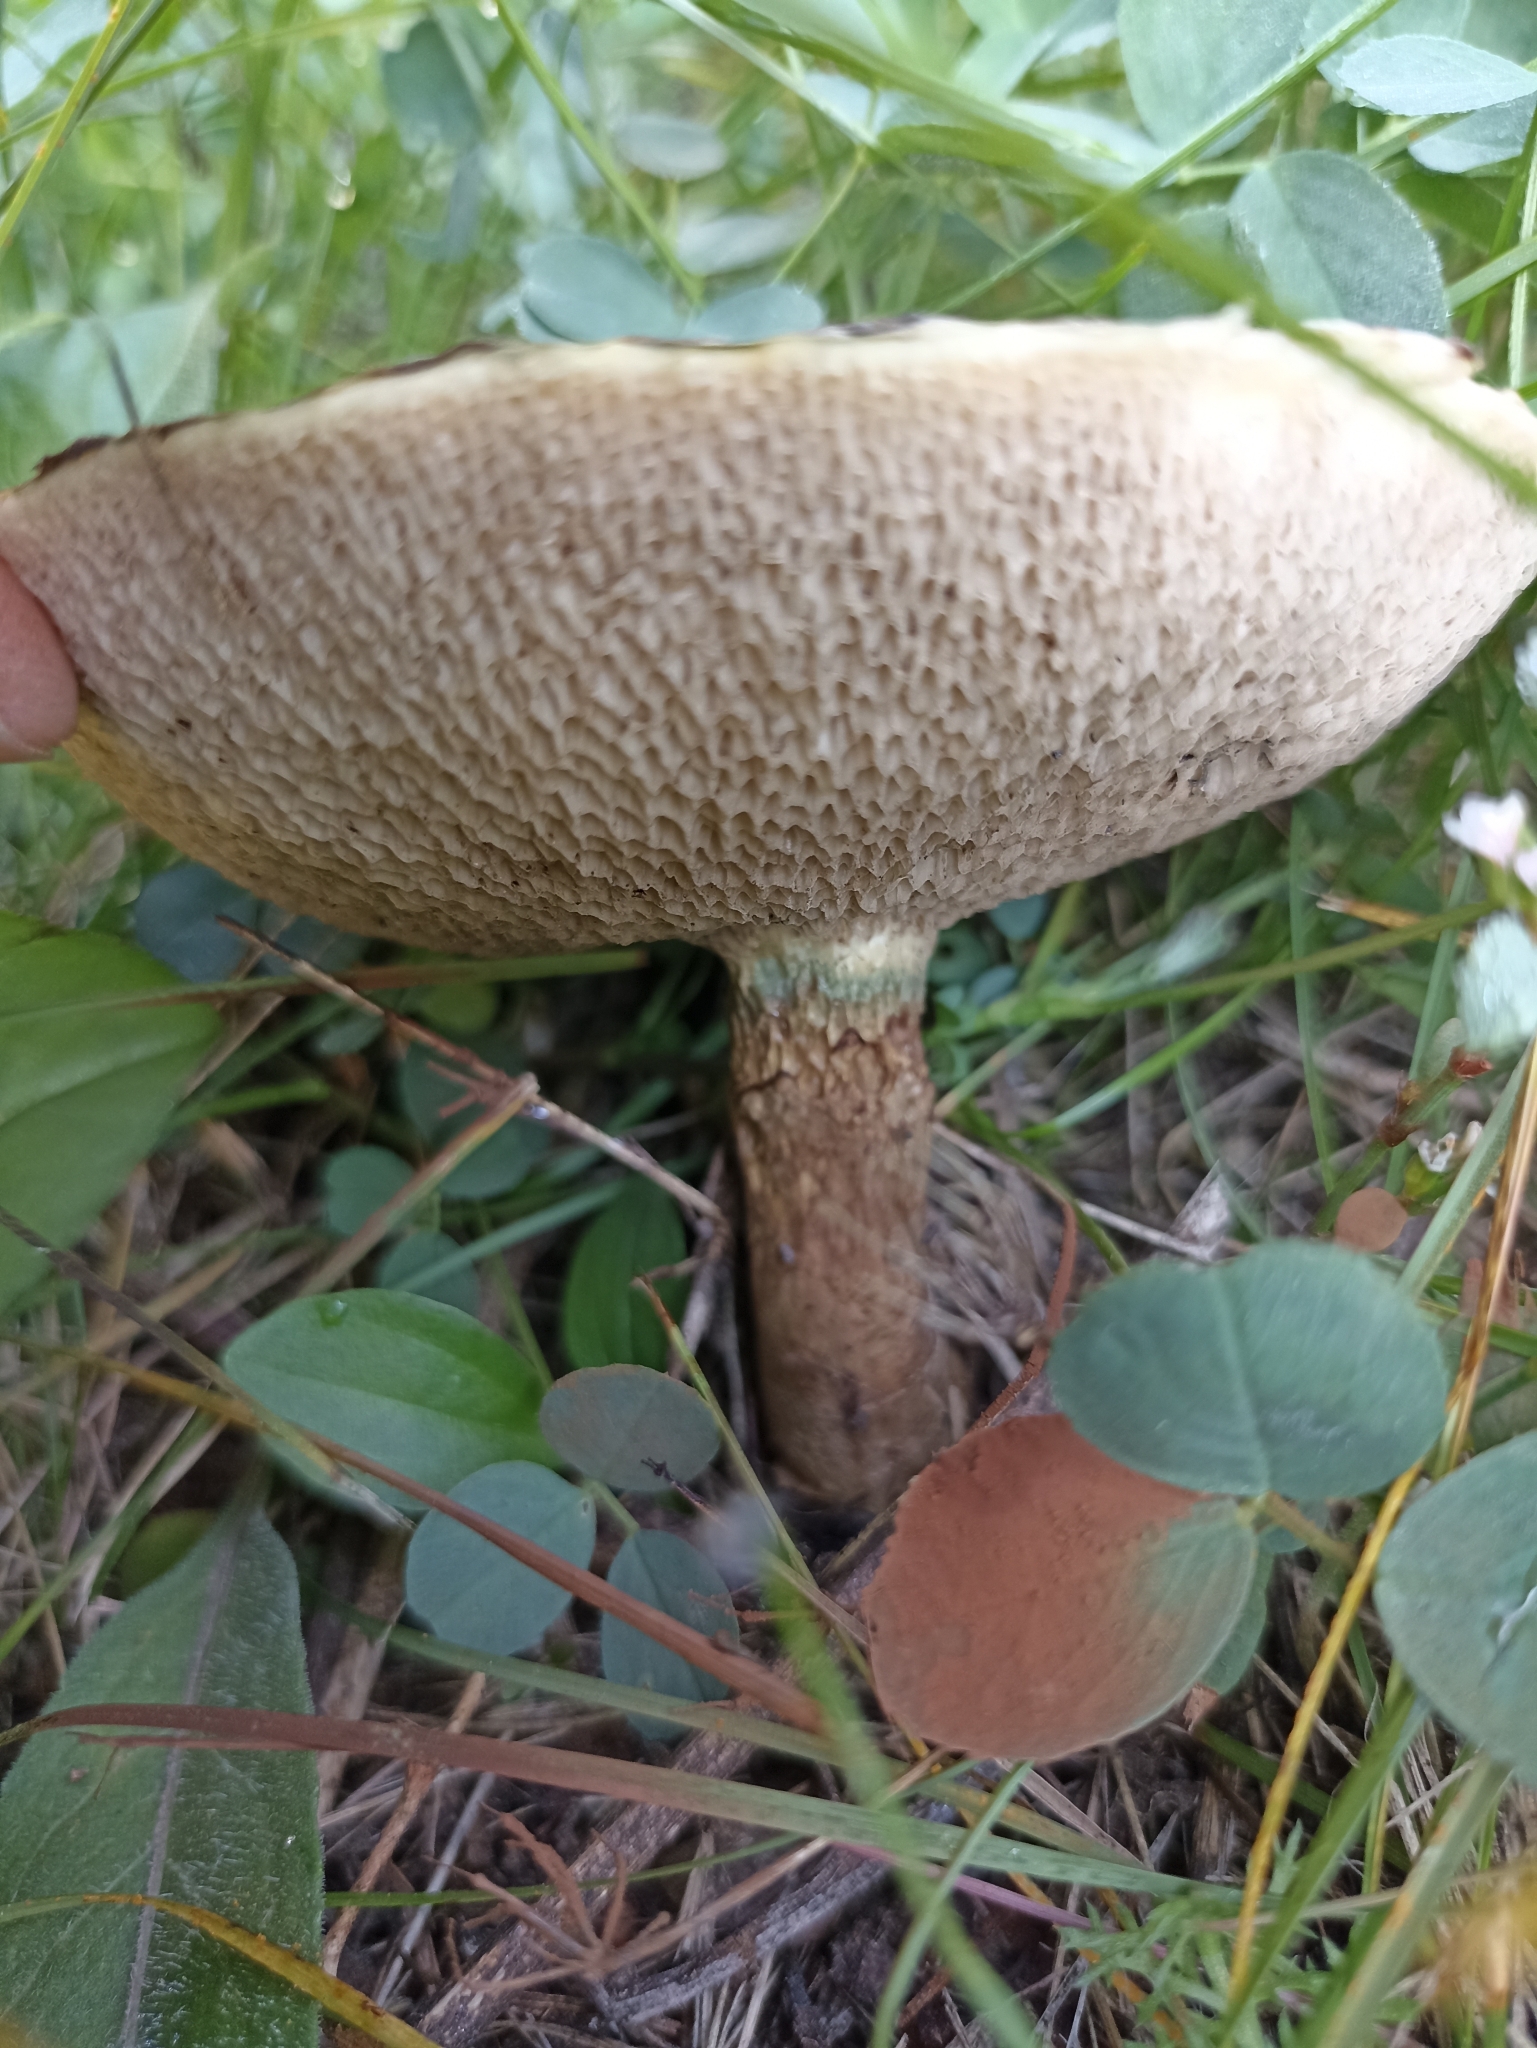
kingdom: Fungi
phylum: Basidiomycota
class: Agaricomycetes
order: Boletales
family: Suillaceae
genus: Suillus
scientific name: Suillus viscidus
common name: Sticky bolete
